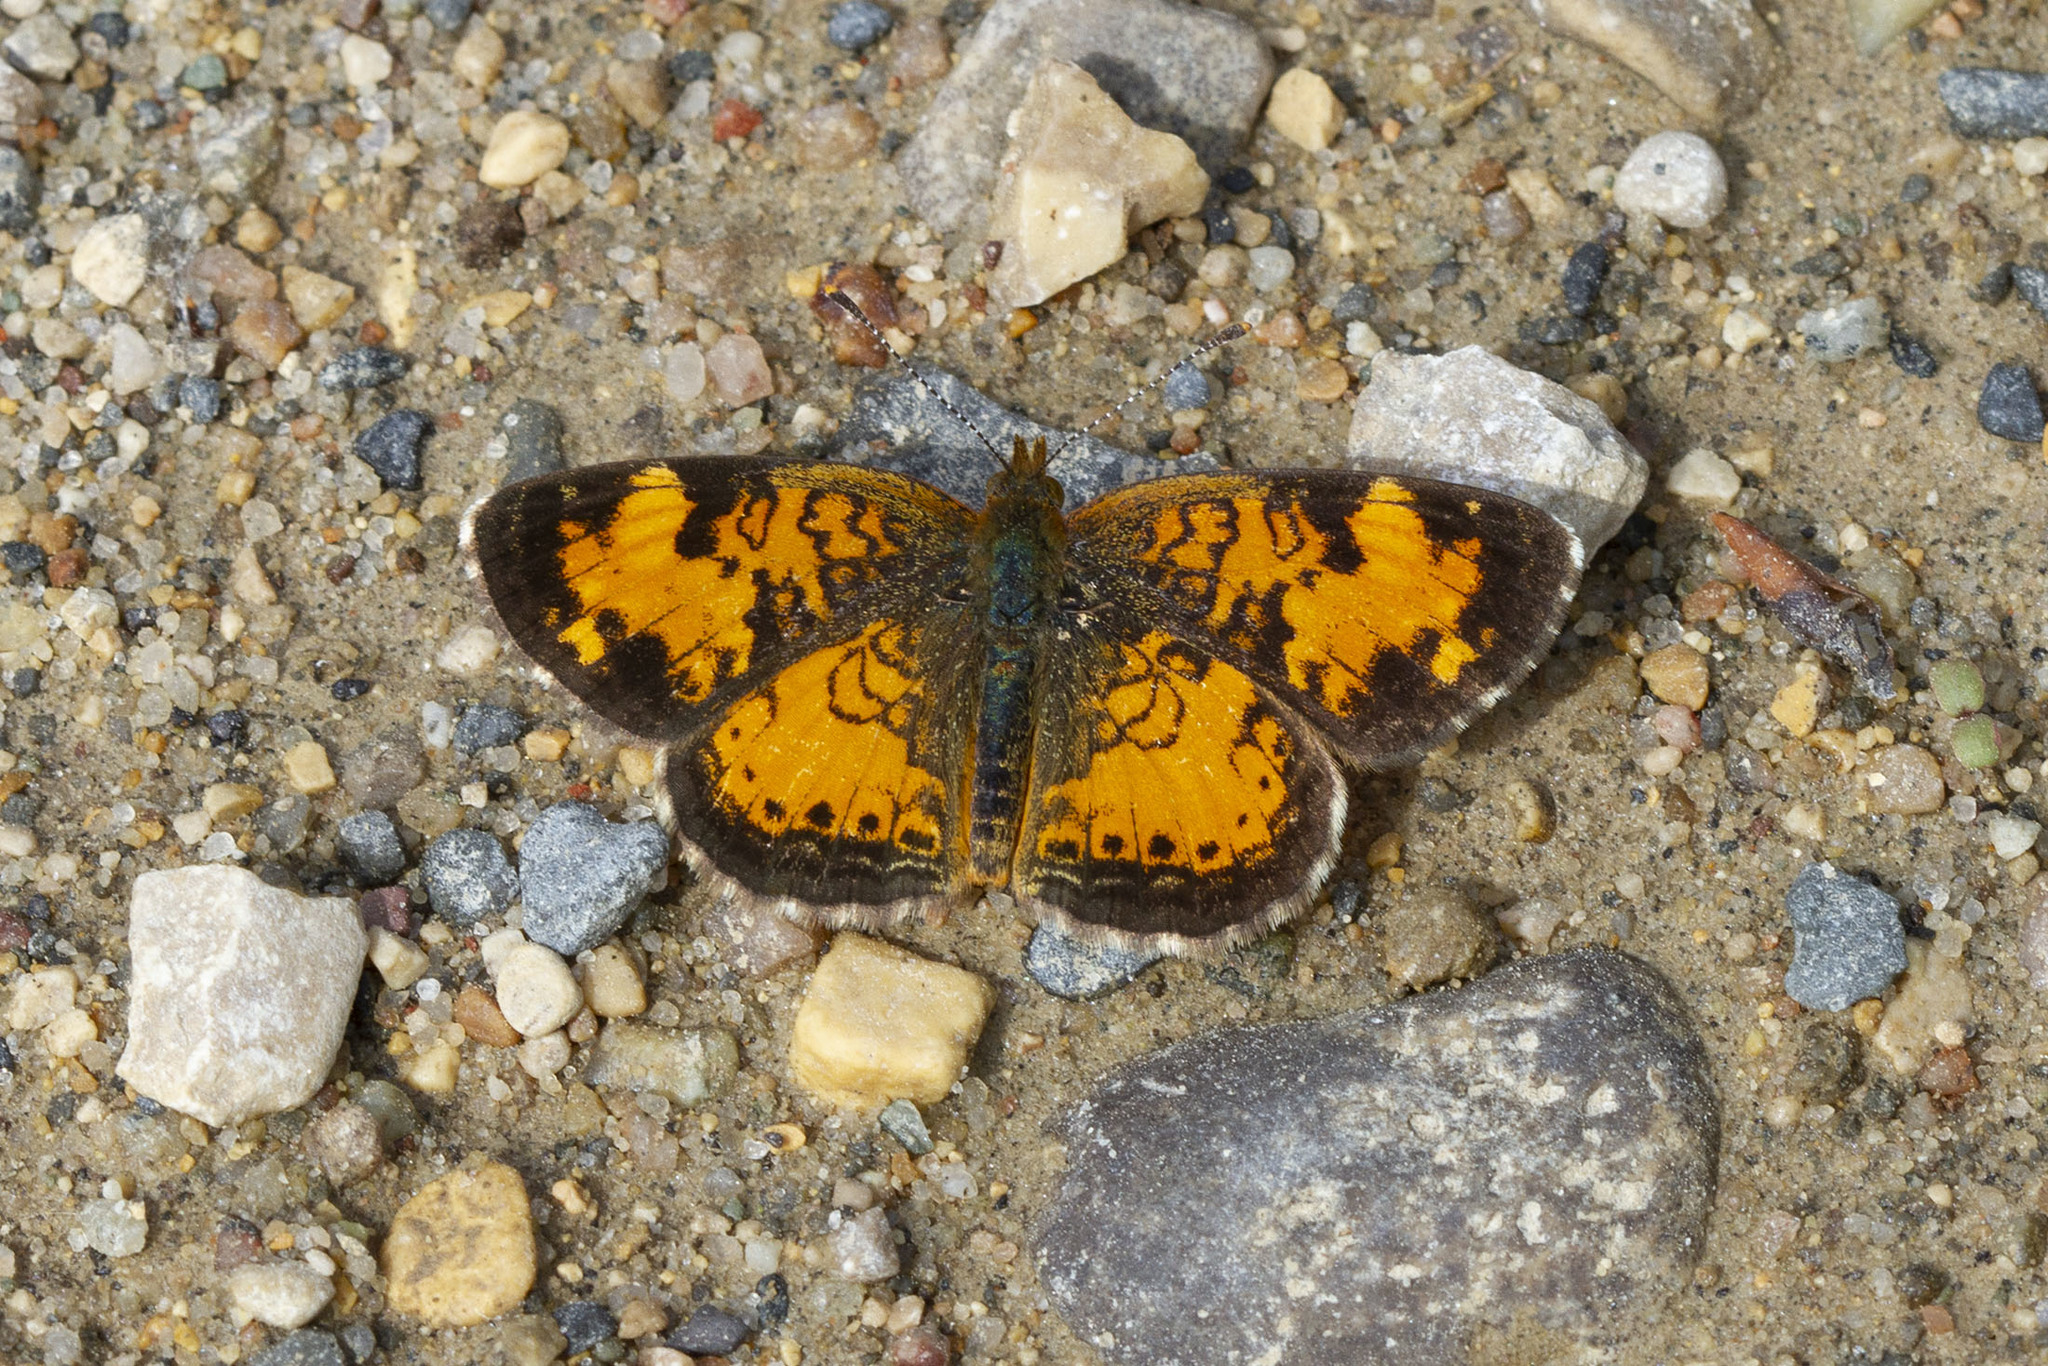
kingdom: Animalia
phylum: Arthropoda
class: Insecta
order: Lepidoptera
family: Nymphalidae
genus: Phyciodes
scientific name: Phyciodes tharos
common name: Pearl crescent
